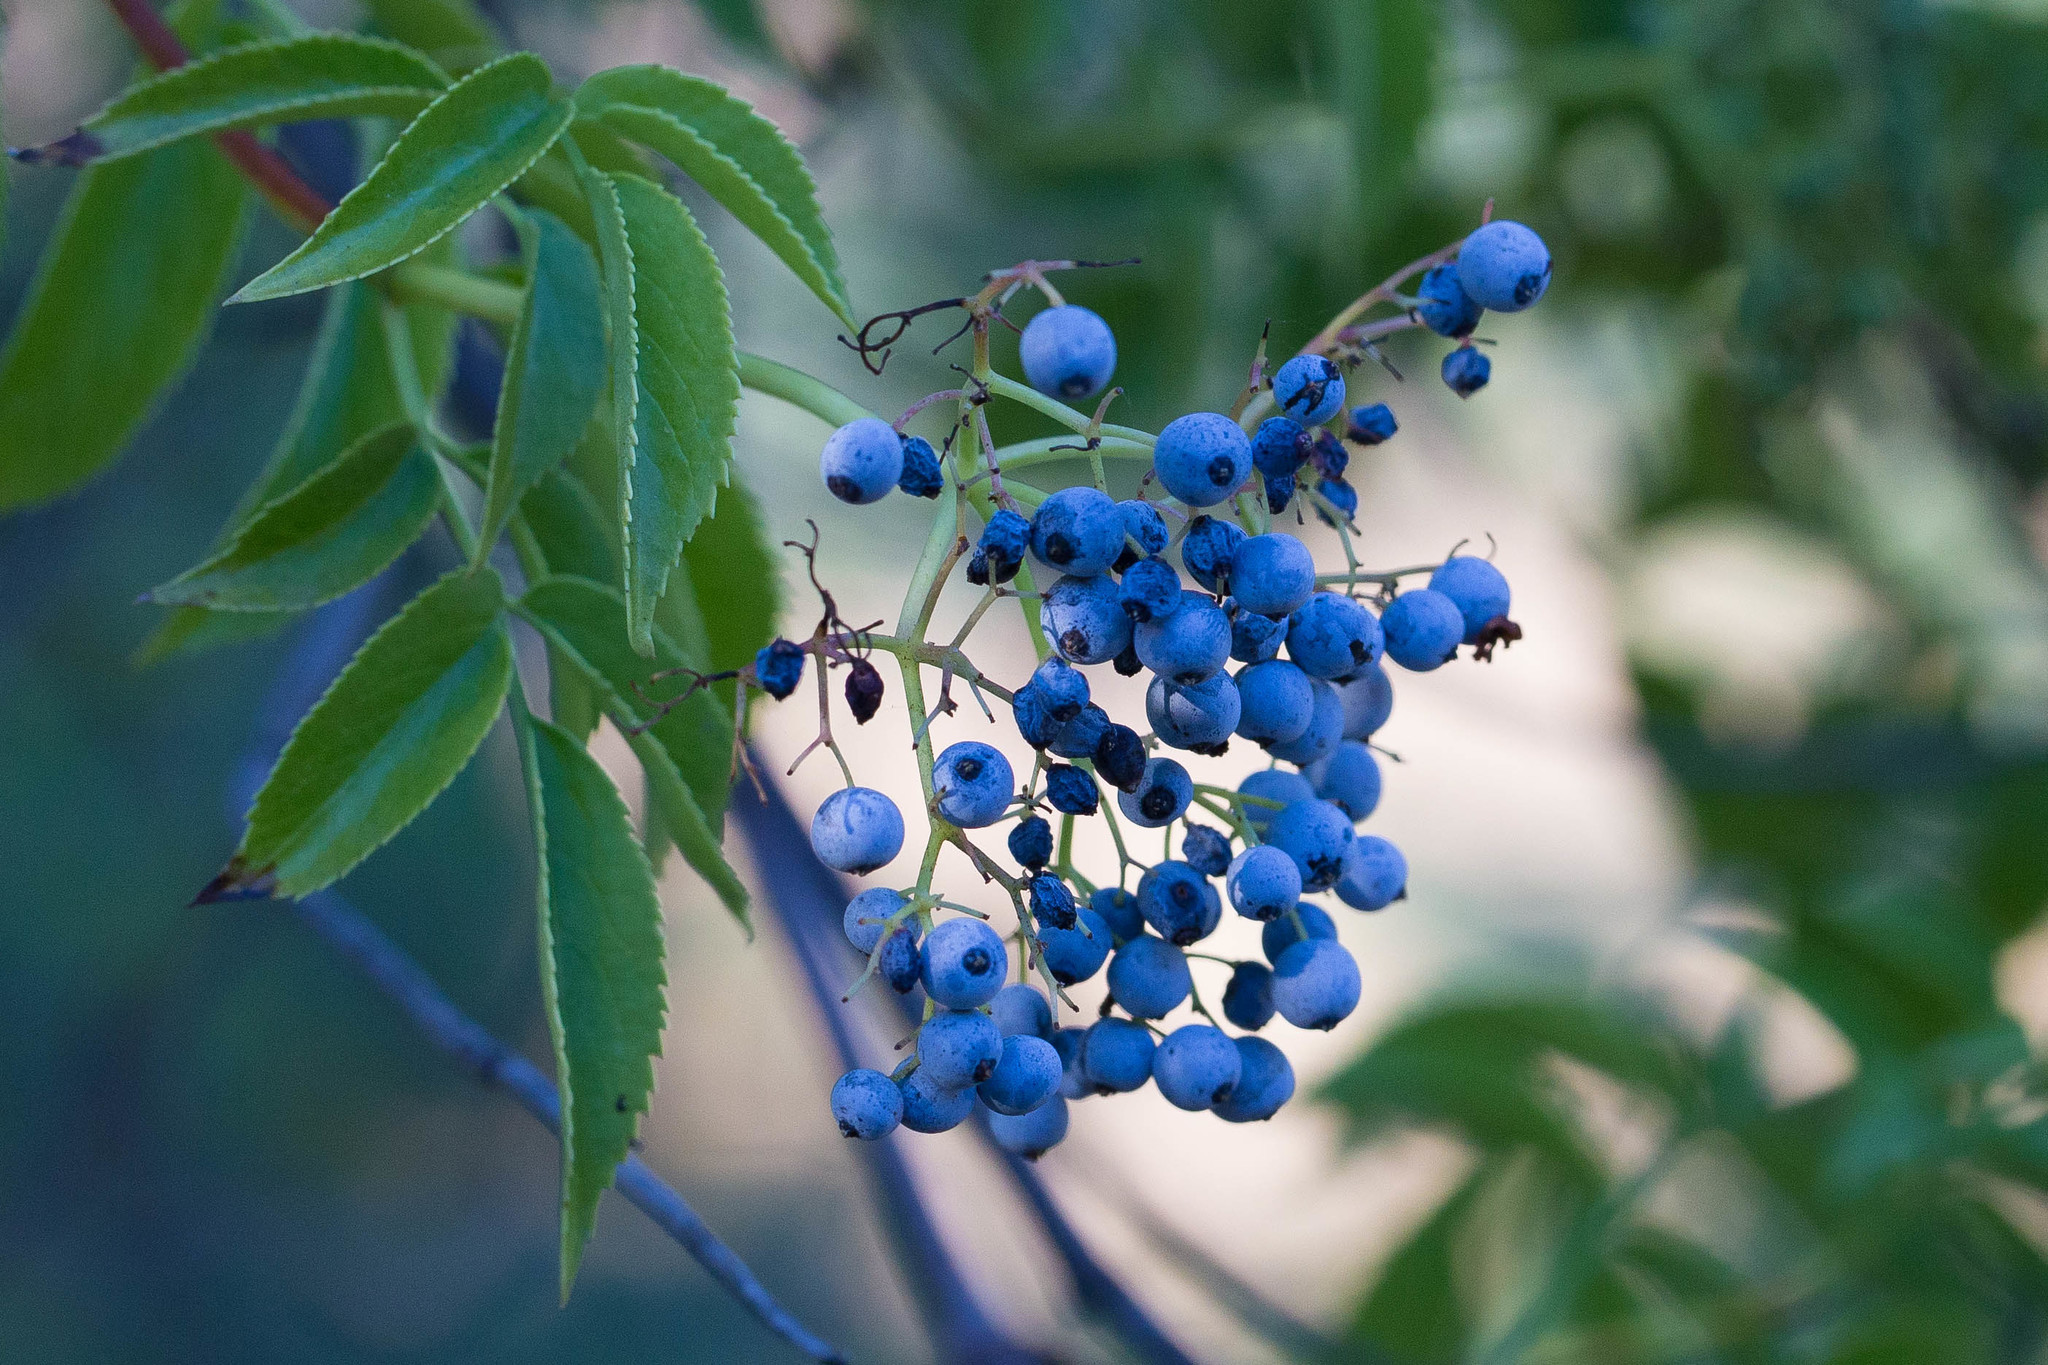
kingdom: Plantae
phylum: Tracheophyta
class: Magnoliopsida
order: Dipsacales
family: Viburnaceae
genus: Sambucus
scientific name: Sambucus cerulea
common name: Blue elder
